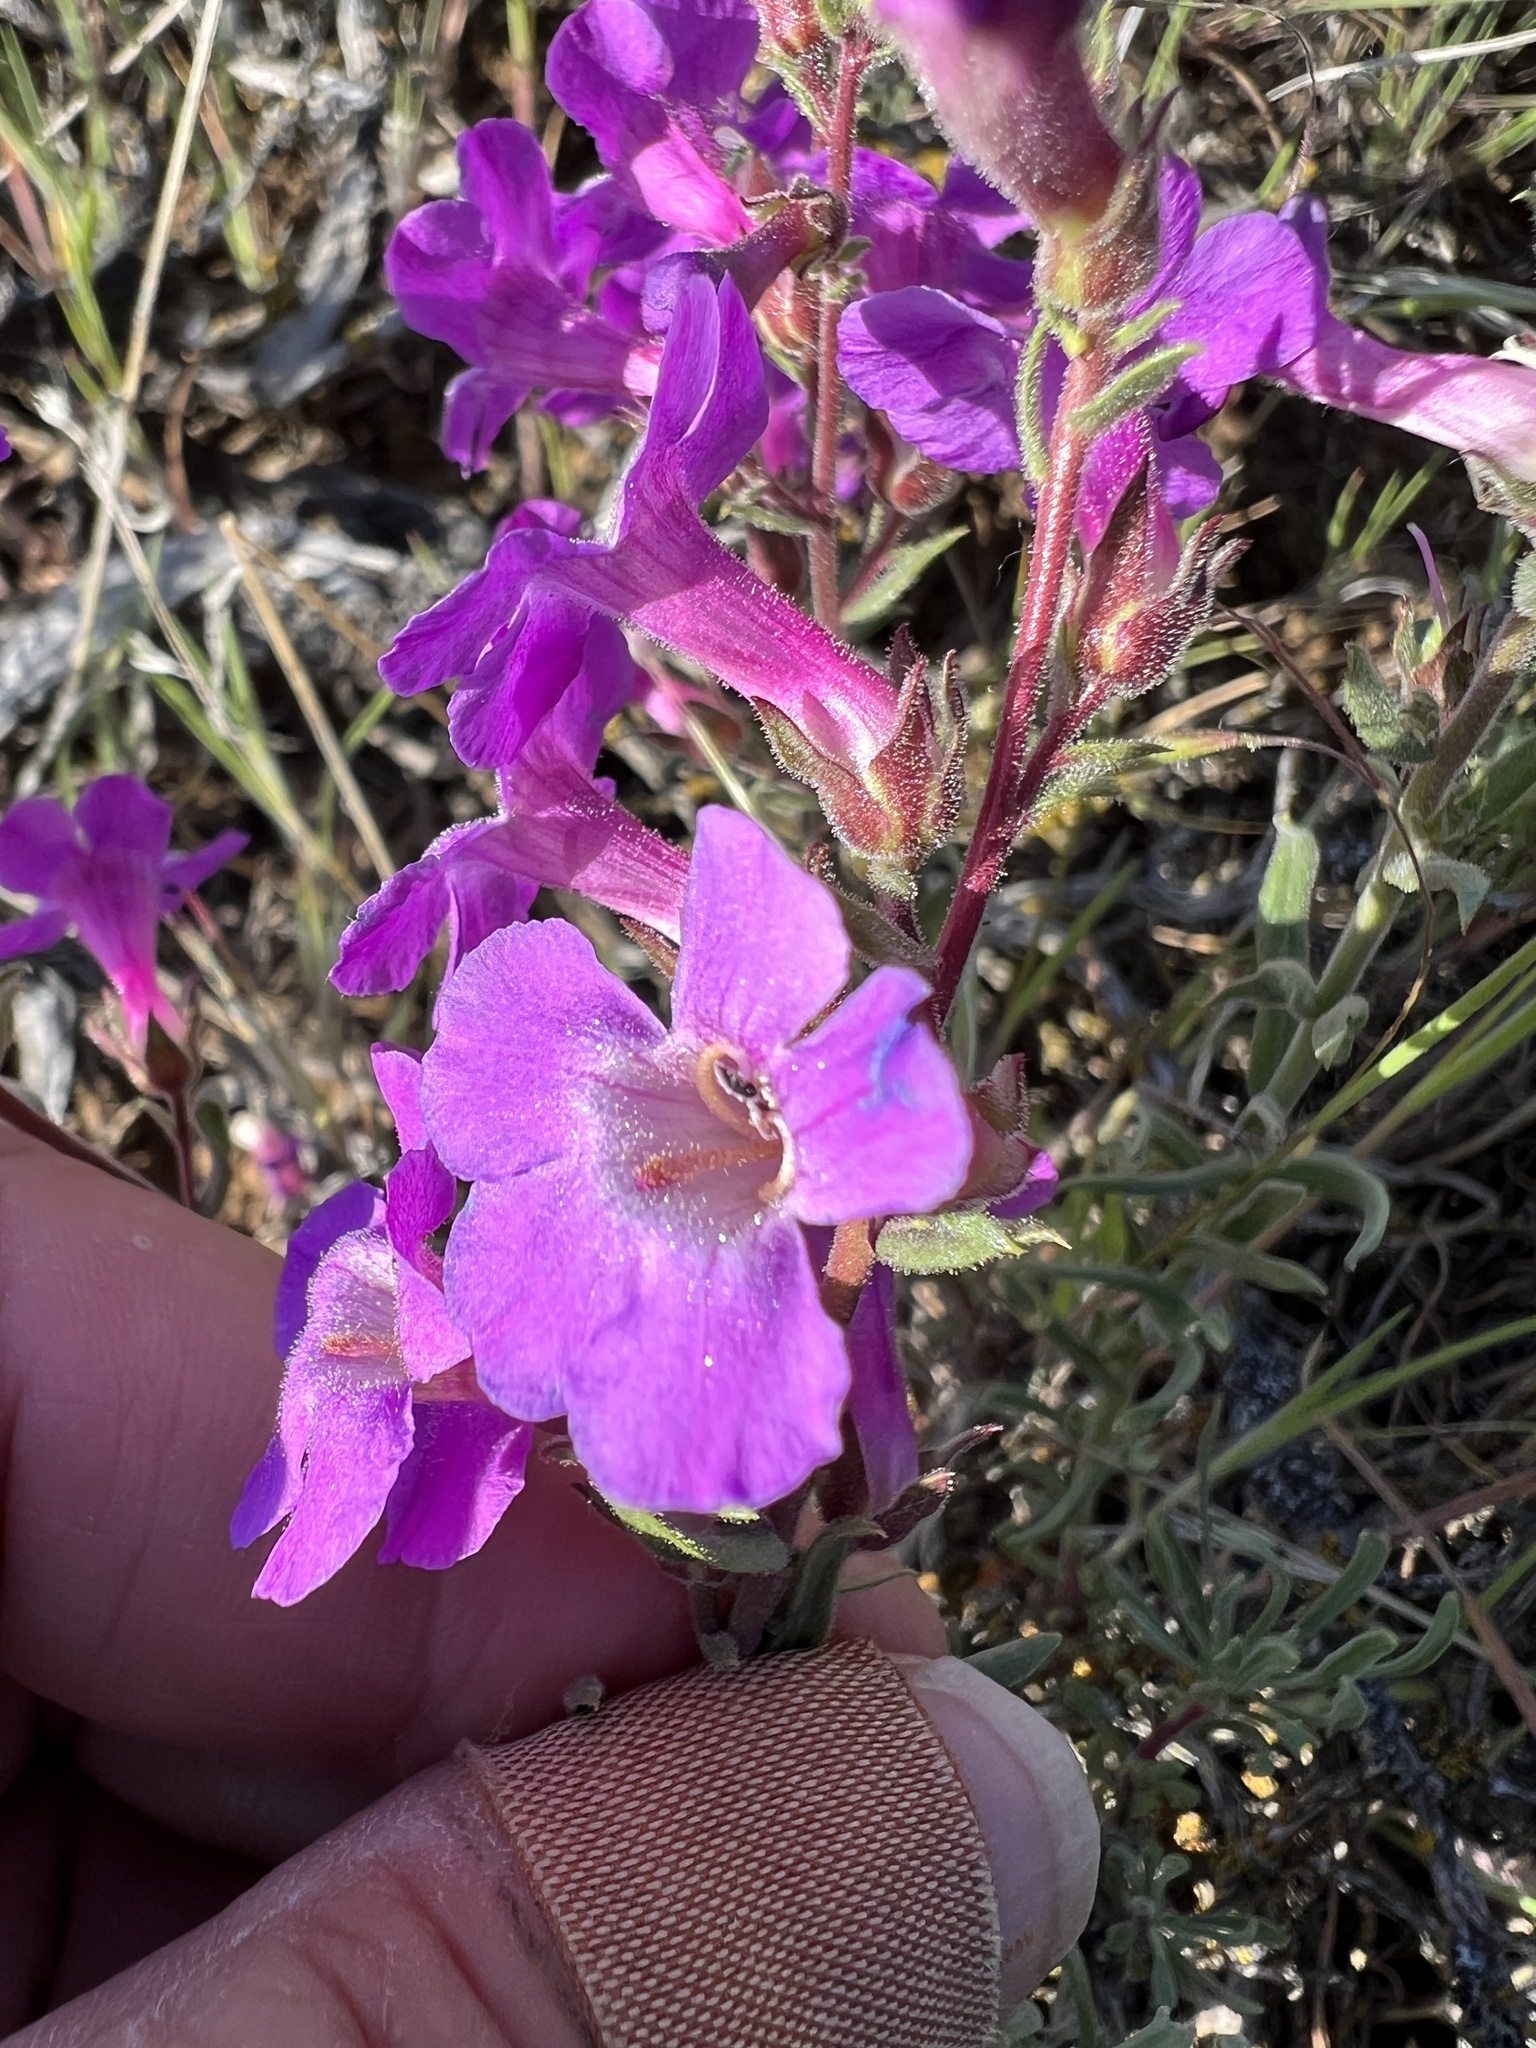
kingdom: Plantae
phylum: Tracheophyta
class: Magnoliopsida
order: Lamiales
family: Plantaginaceae
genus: Penstemon
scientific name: Penstemon gairdneri
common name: Gairdner's penstemon
